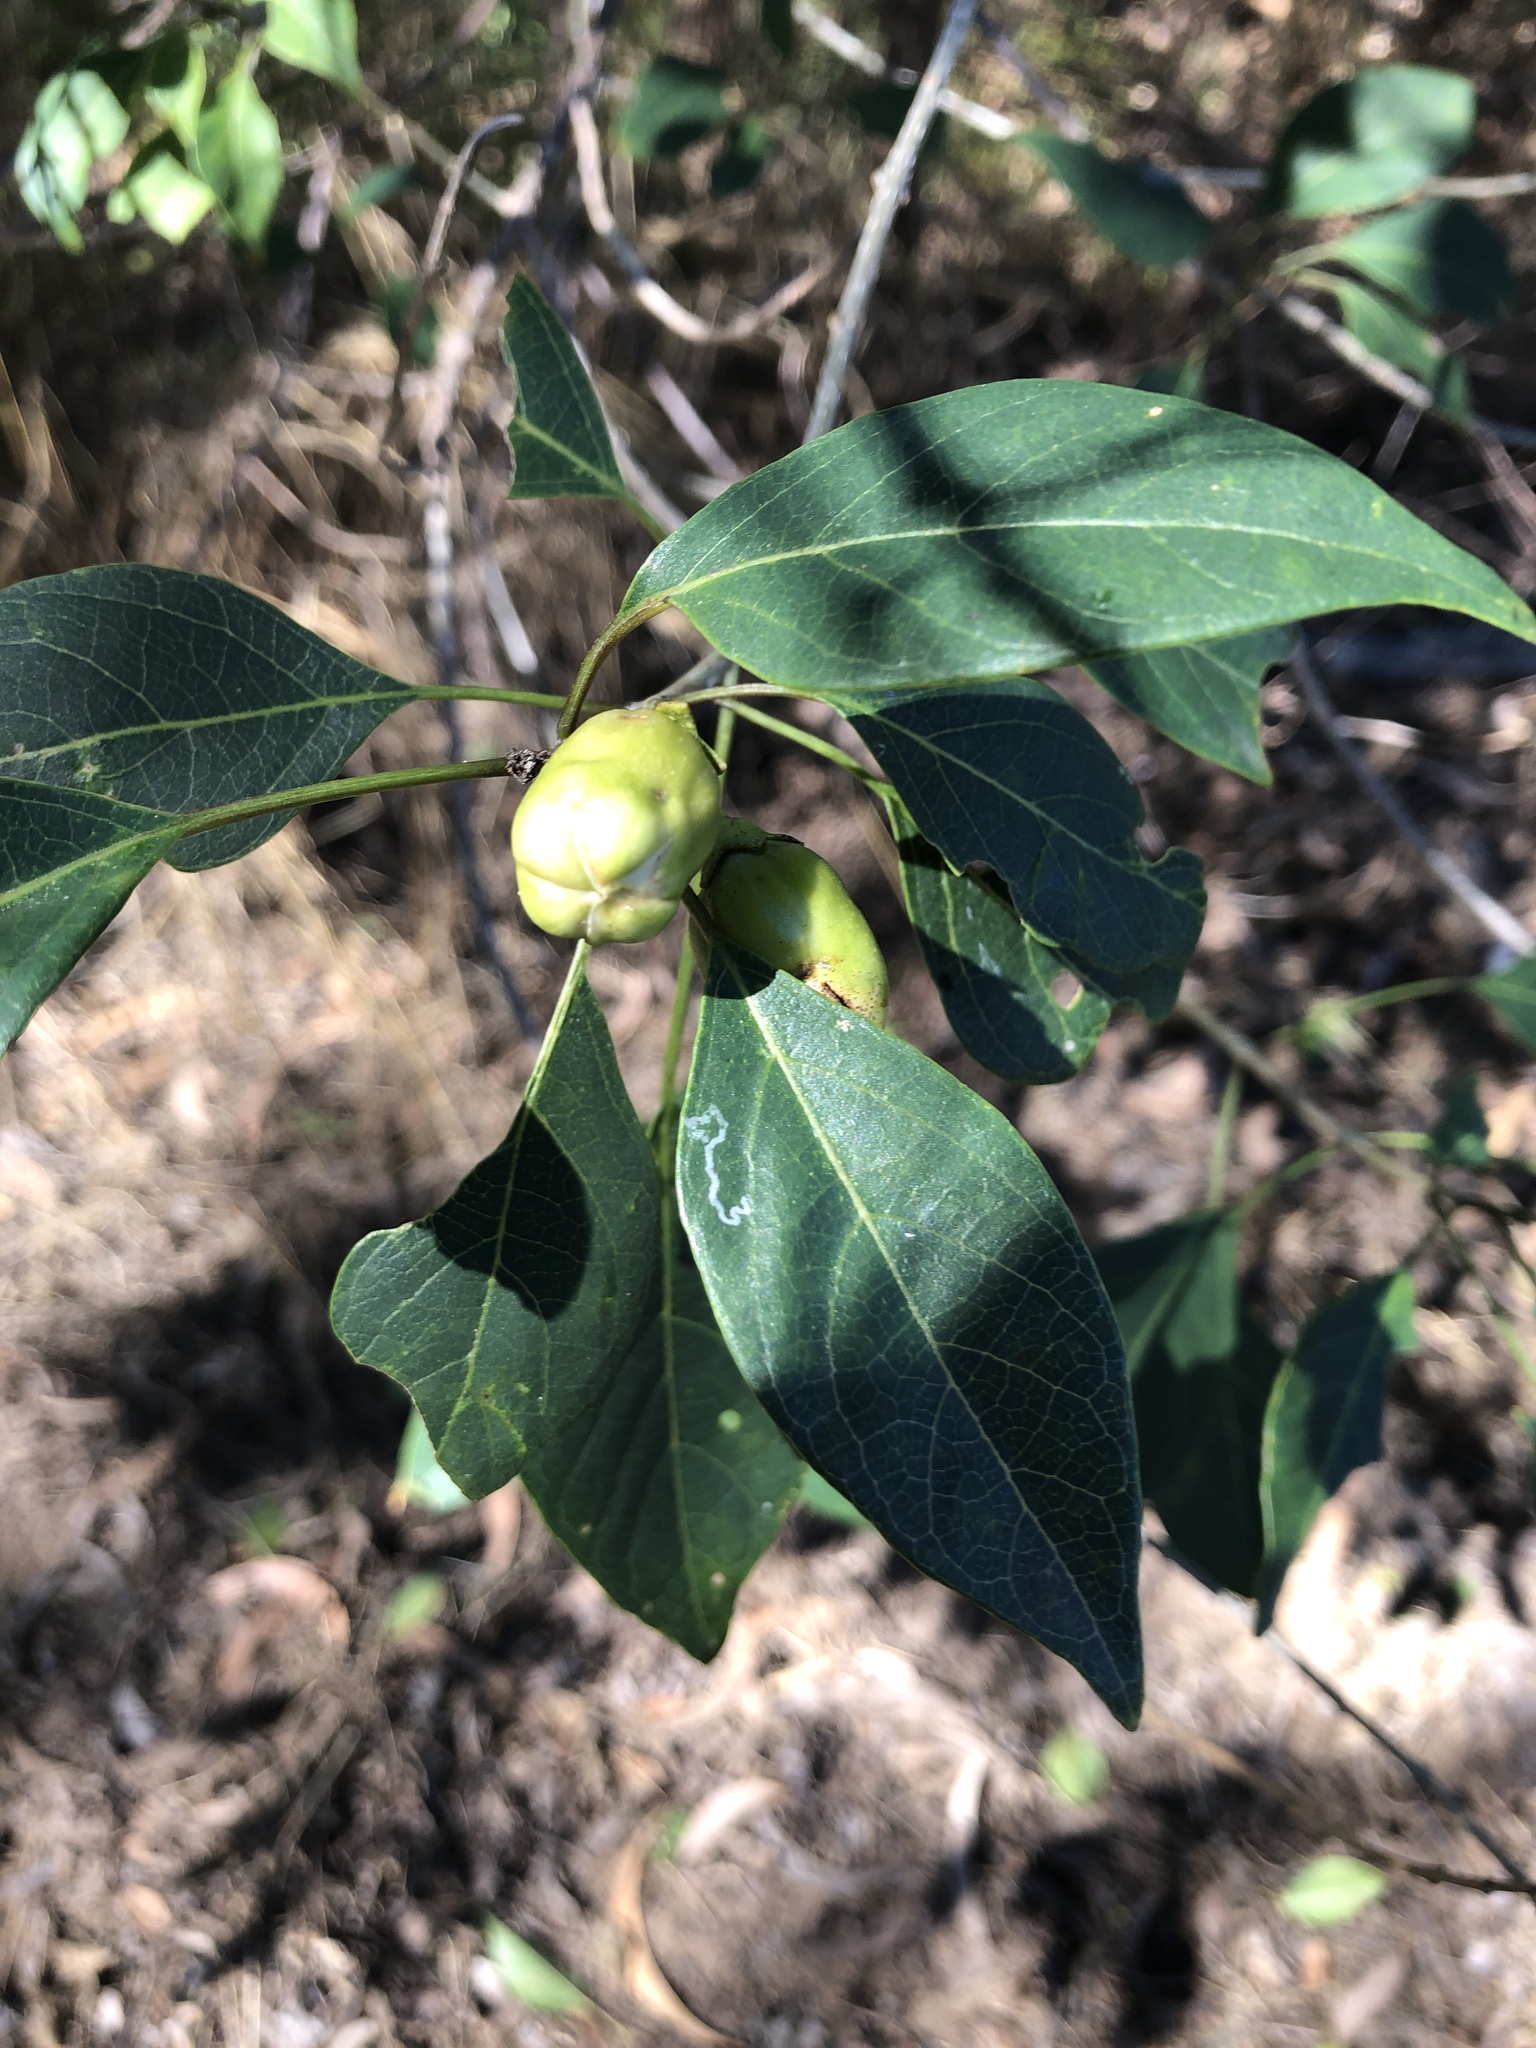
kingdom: Plantae
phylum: Tracheophyta
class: Magnoliopsida
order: Lamiales
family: Lamiaceae
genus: Clerodendrum
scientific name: Clerodendrum floribundum
